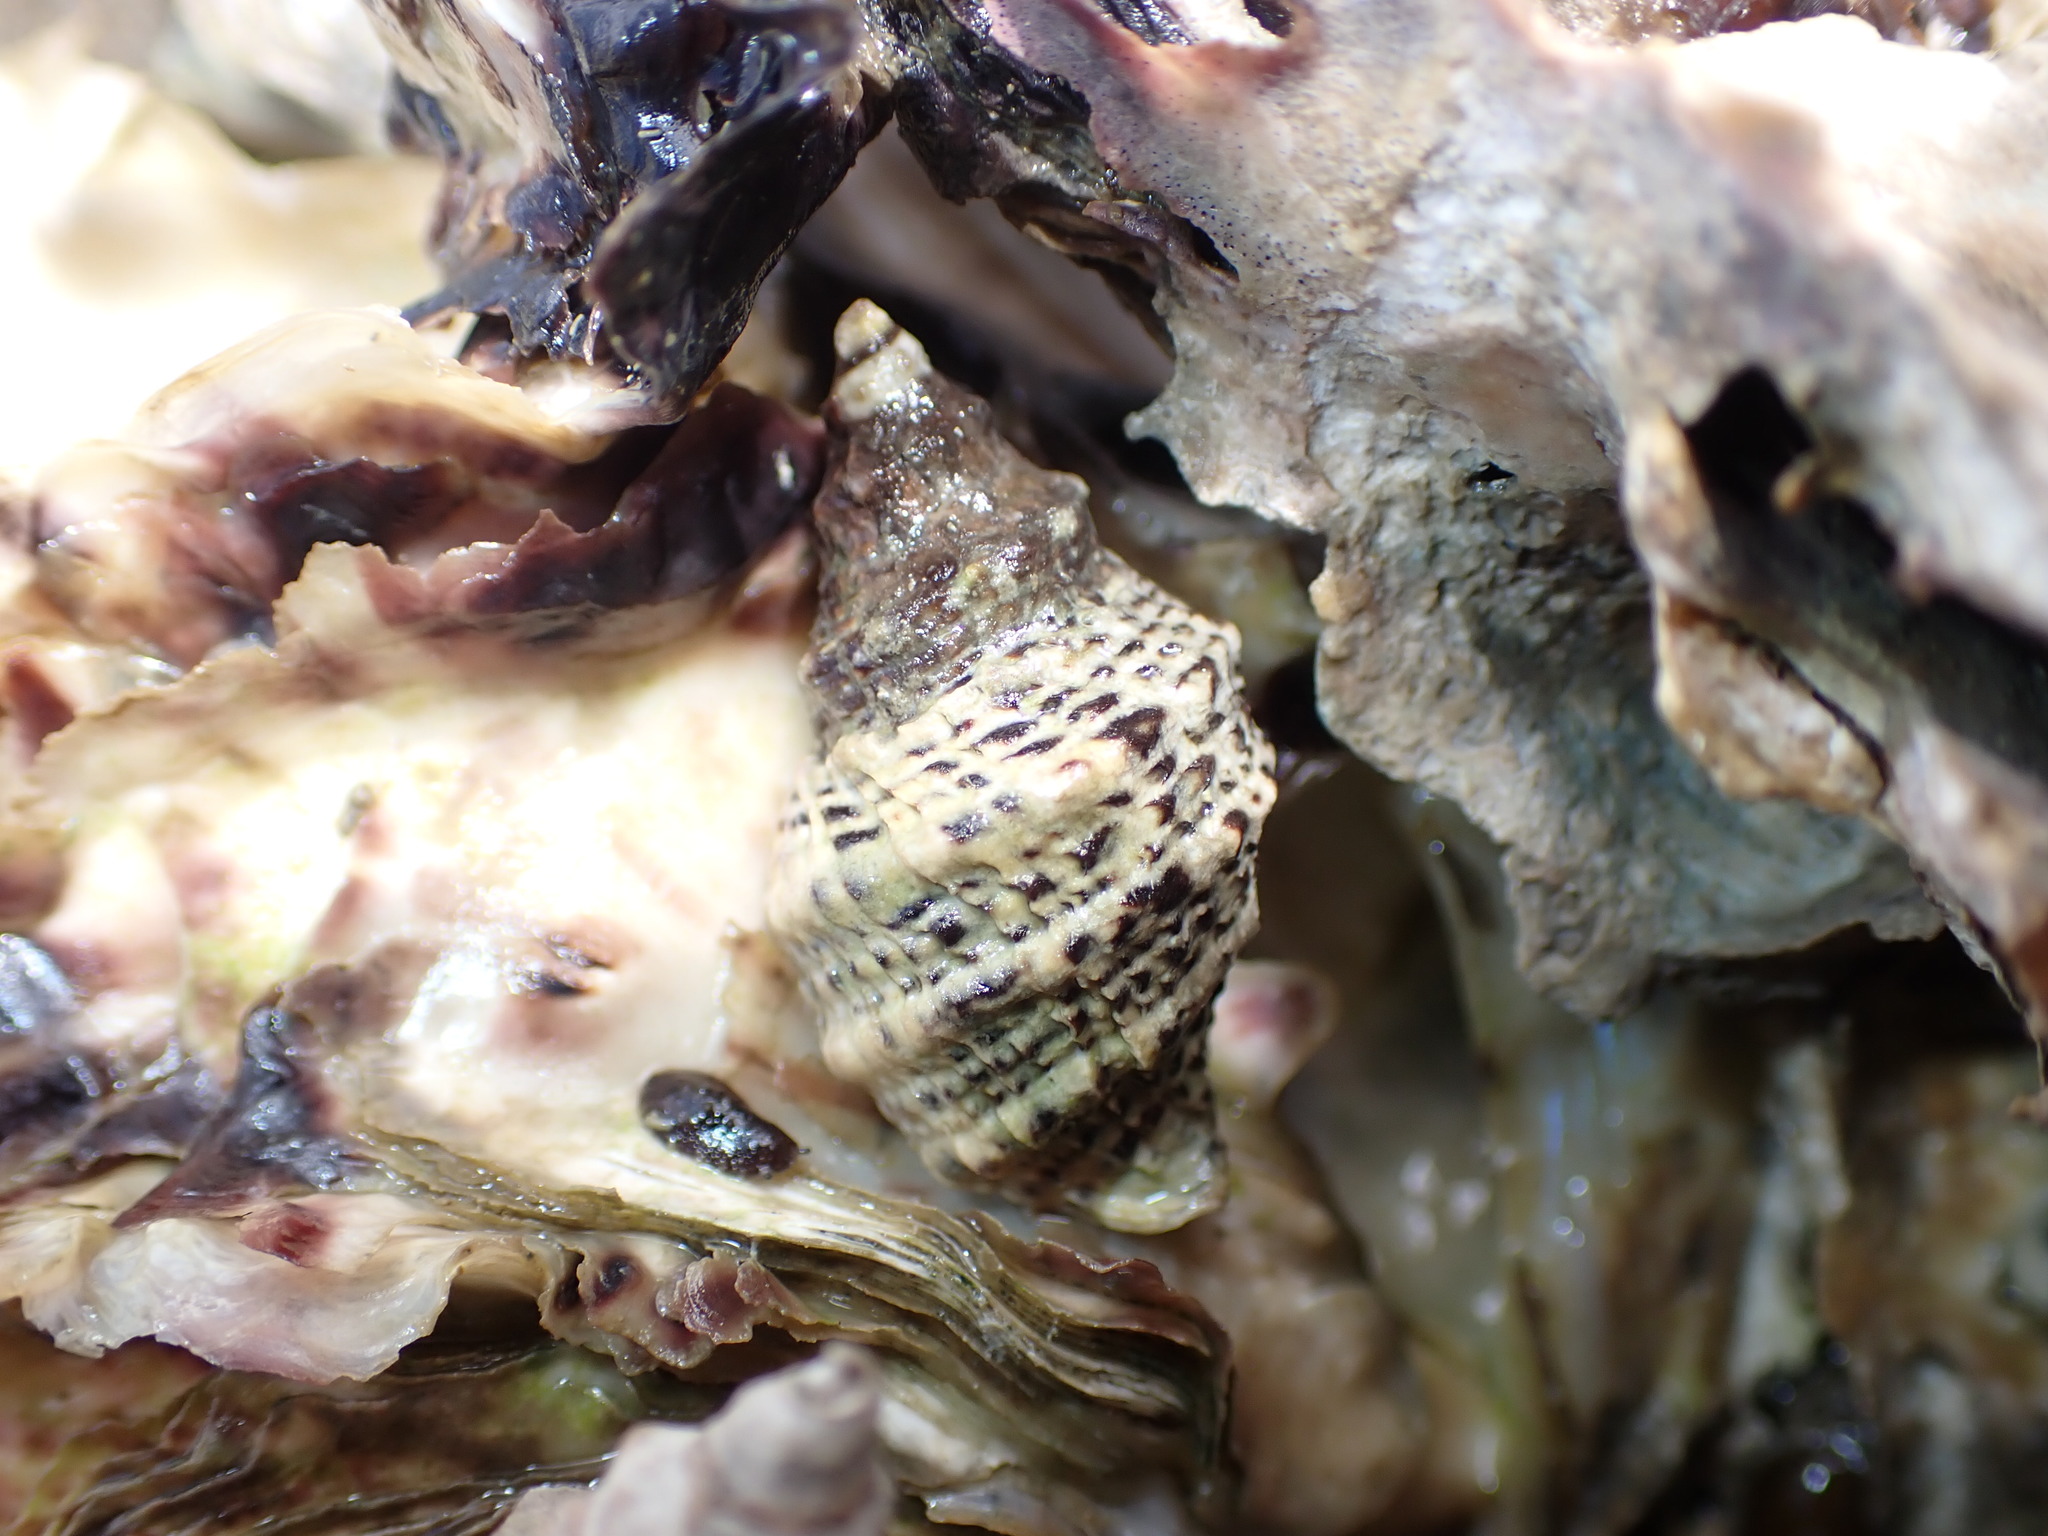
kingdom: Animalia
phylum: Mollusca
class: Gastropoda
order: Neogastropoda
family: Muricidae
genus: Haustrum
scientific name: Haustrum scobina
